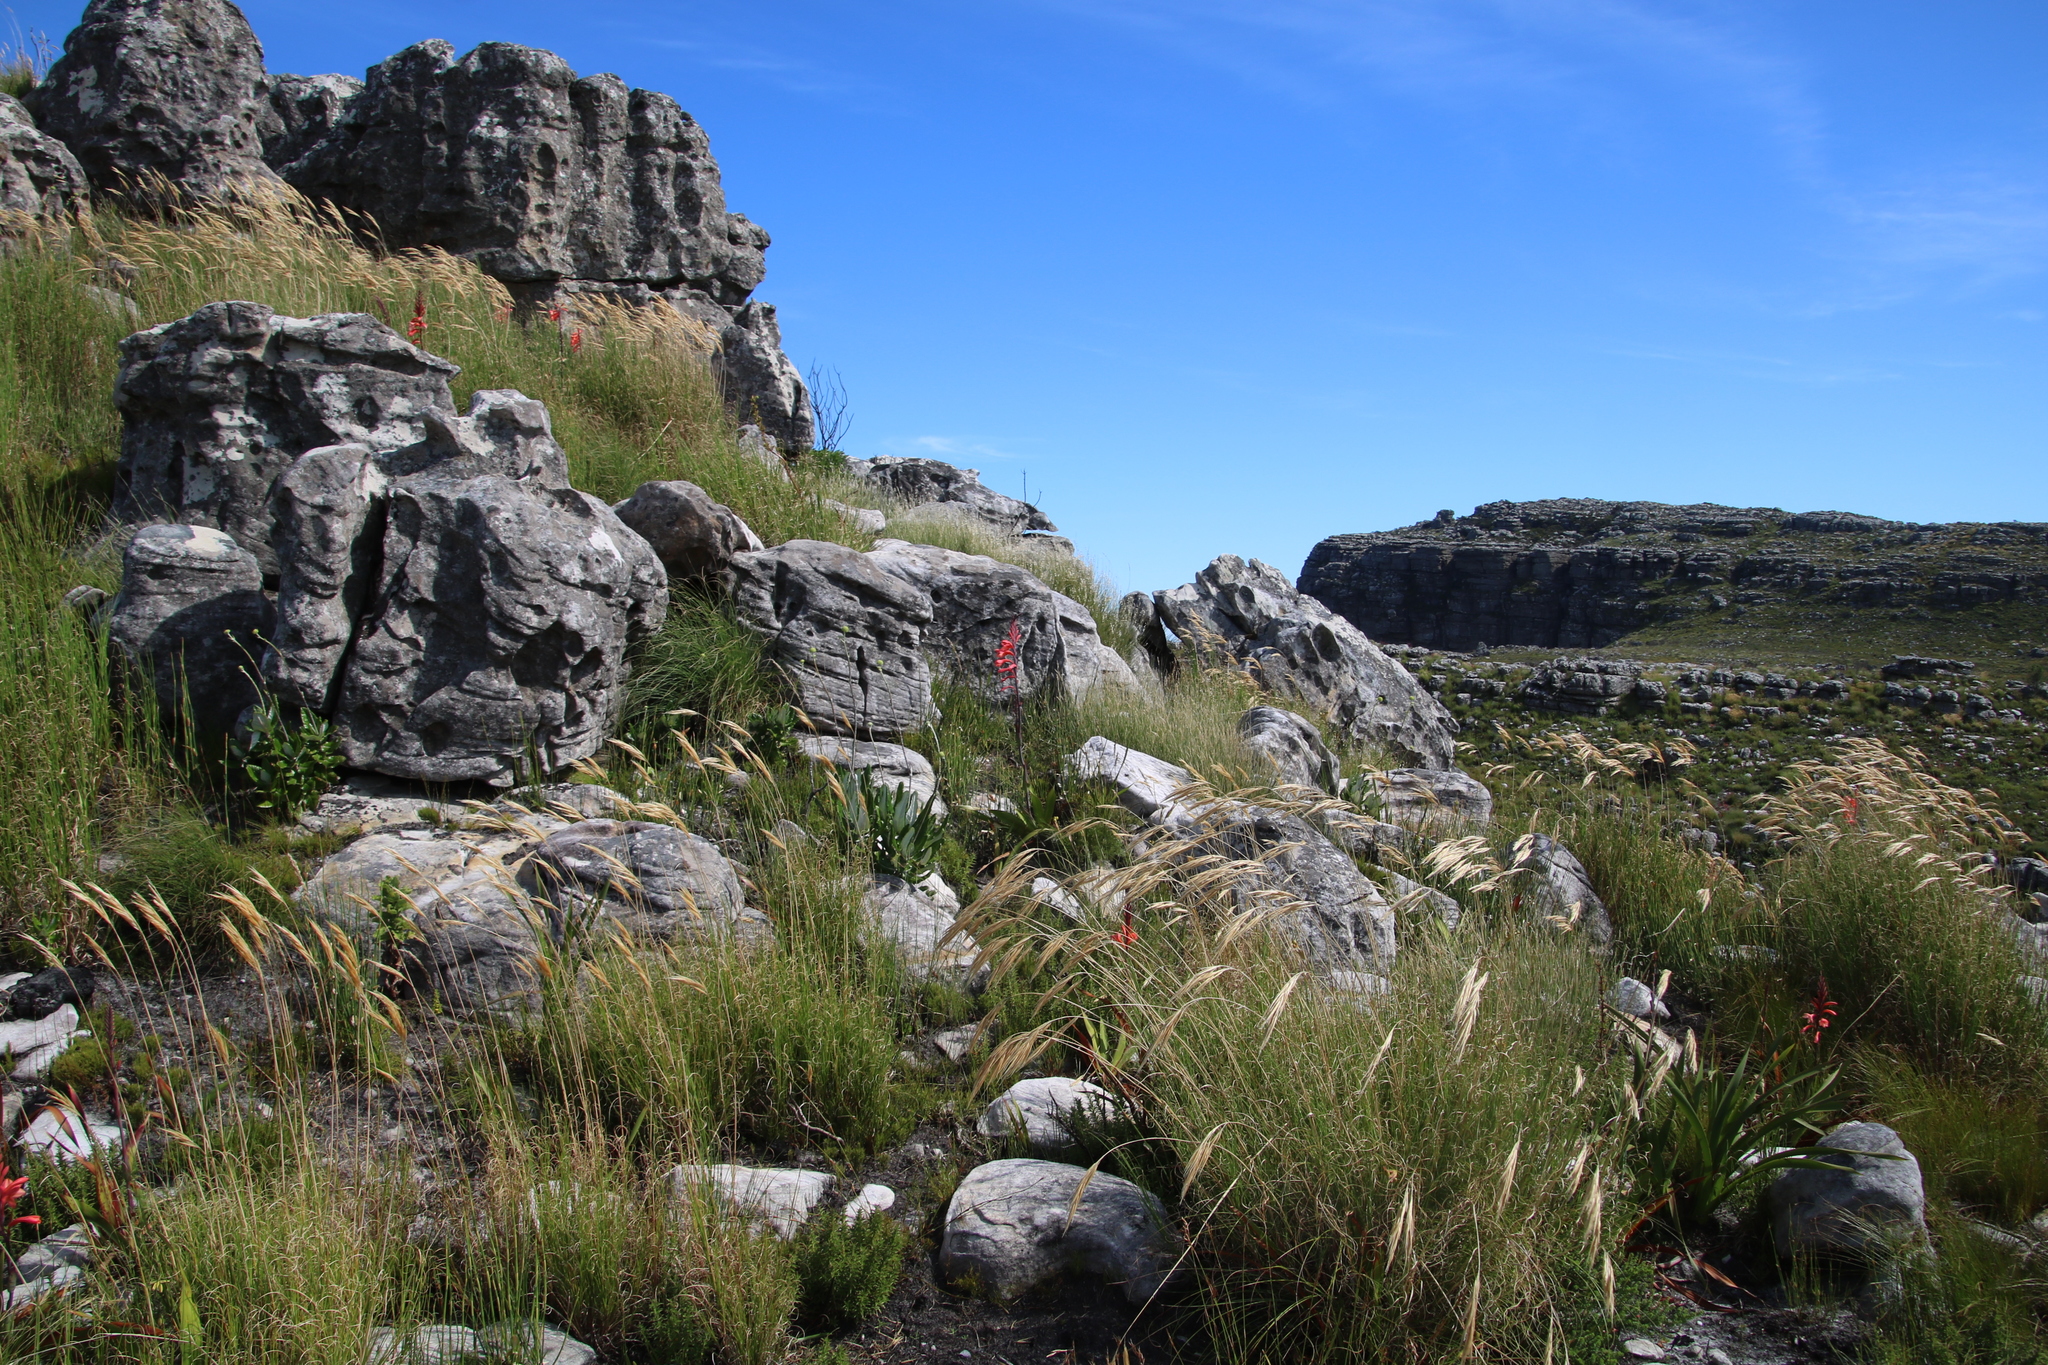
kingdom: Plantae
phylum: Tracheophyta
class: Liliopsida
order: Poales
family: Poaceae
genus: Pseudopentameris
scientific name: Pseudopentameris macrantha
